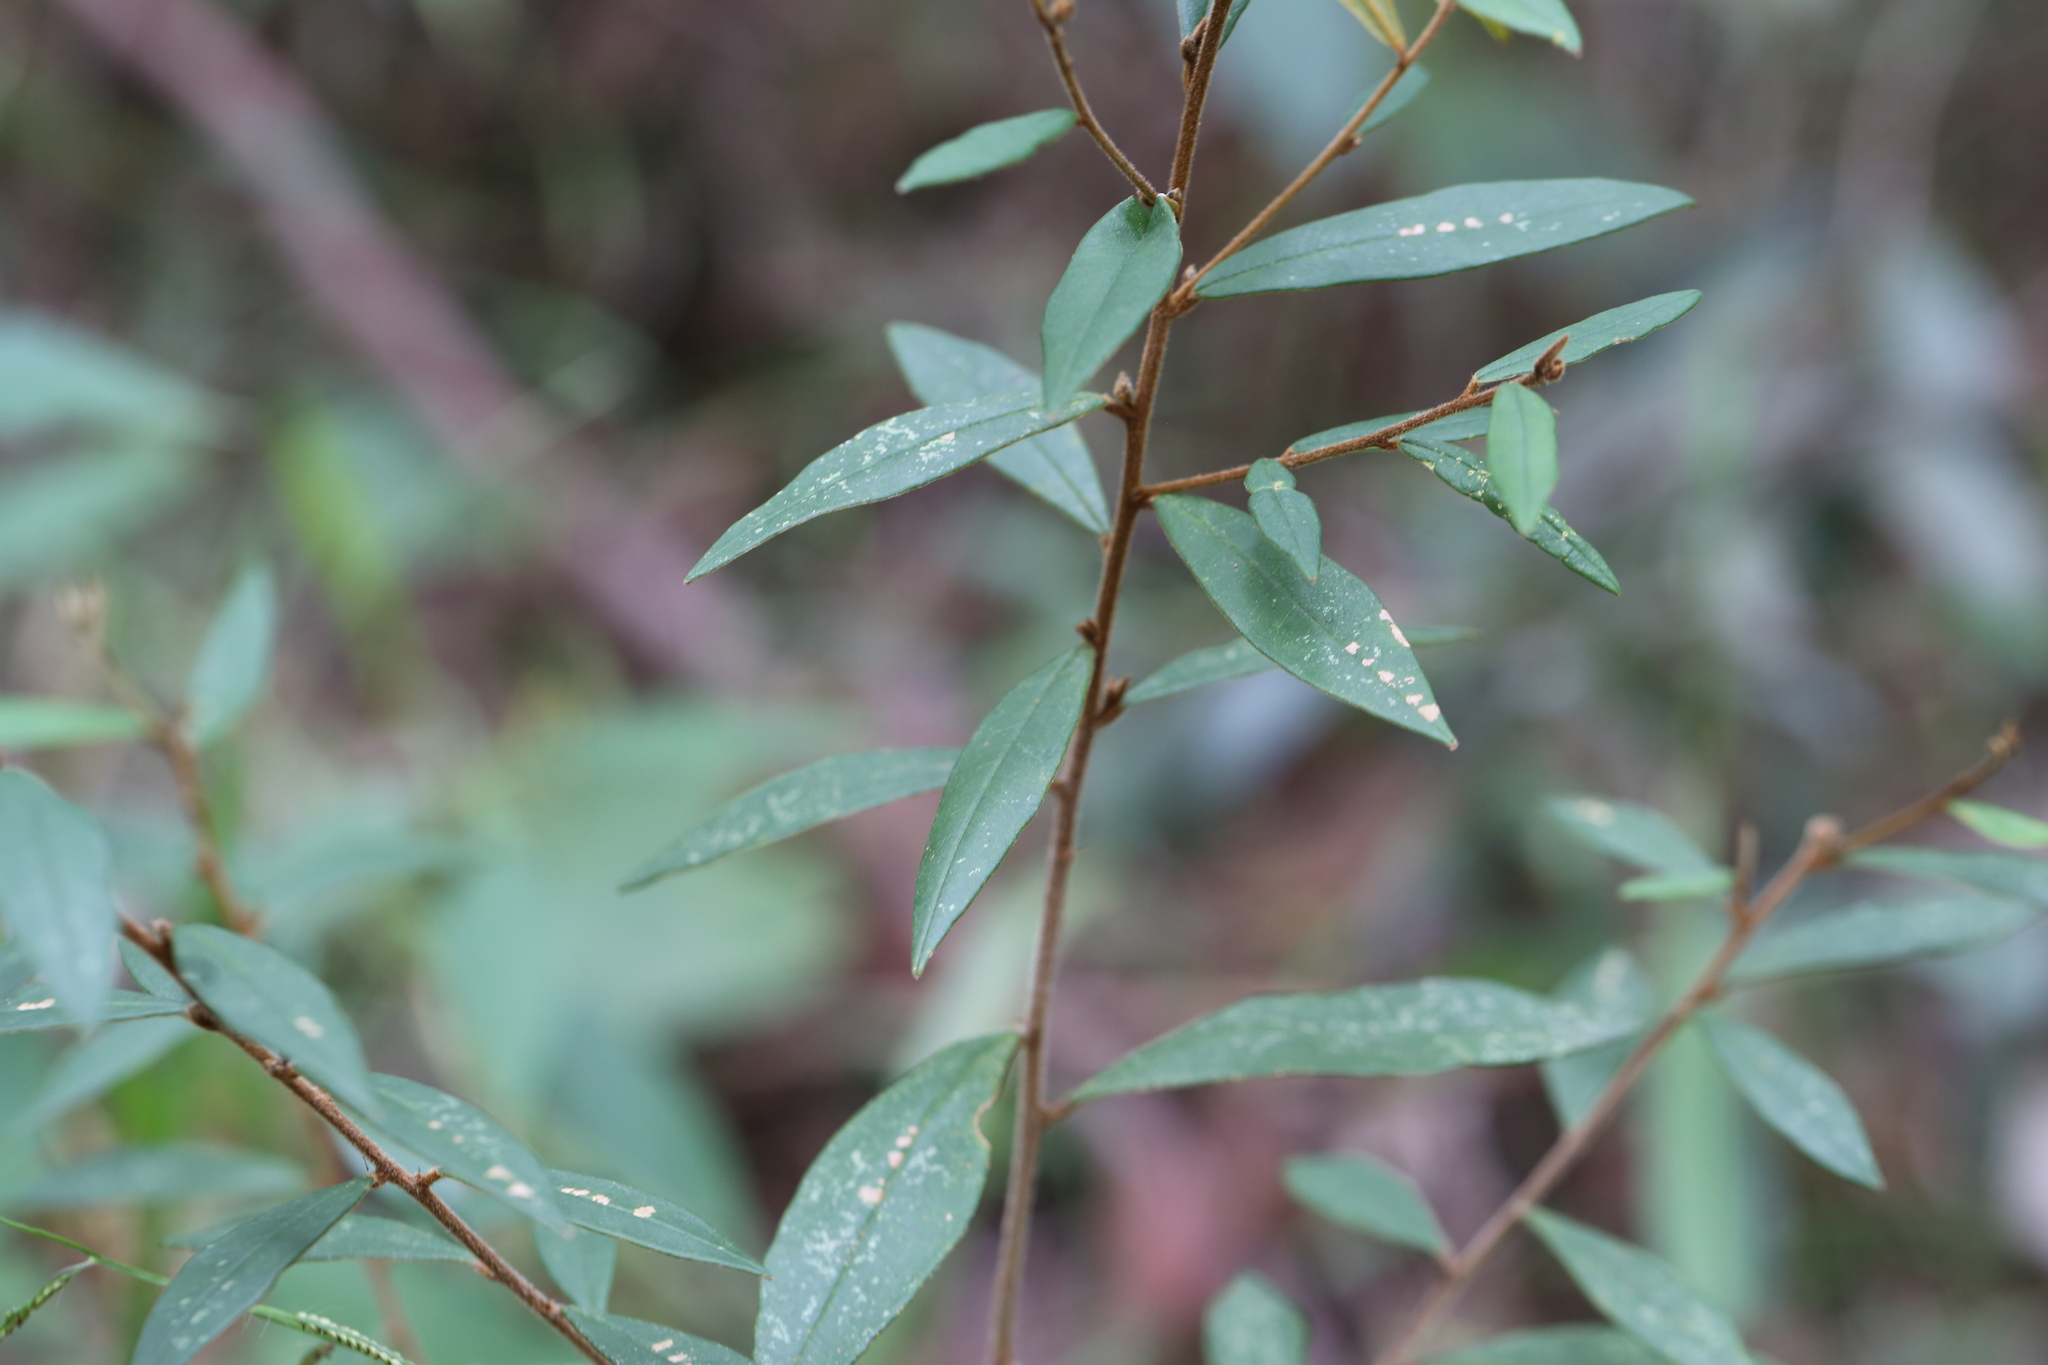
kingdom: Plantae
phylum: Tracheophyta
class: Magnoliopsida
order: Fabales
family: Fabaceae
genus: Hovea
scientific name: Hovea acutifolia
